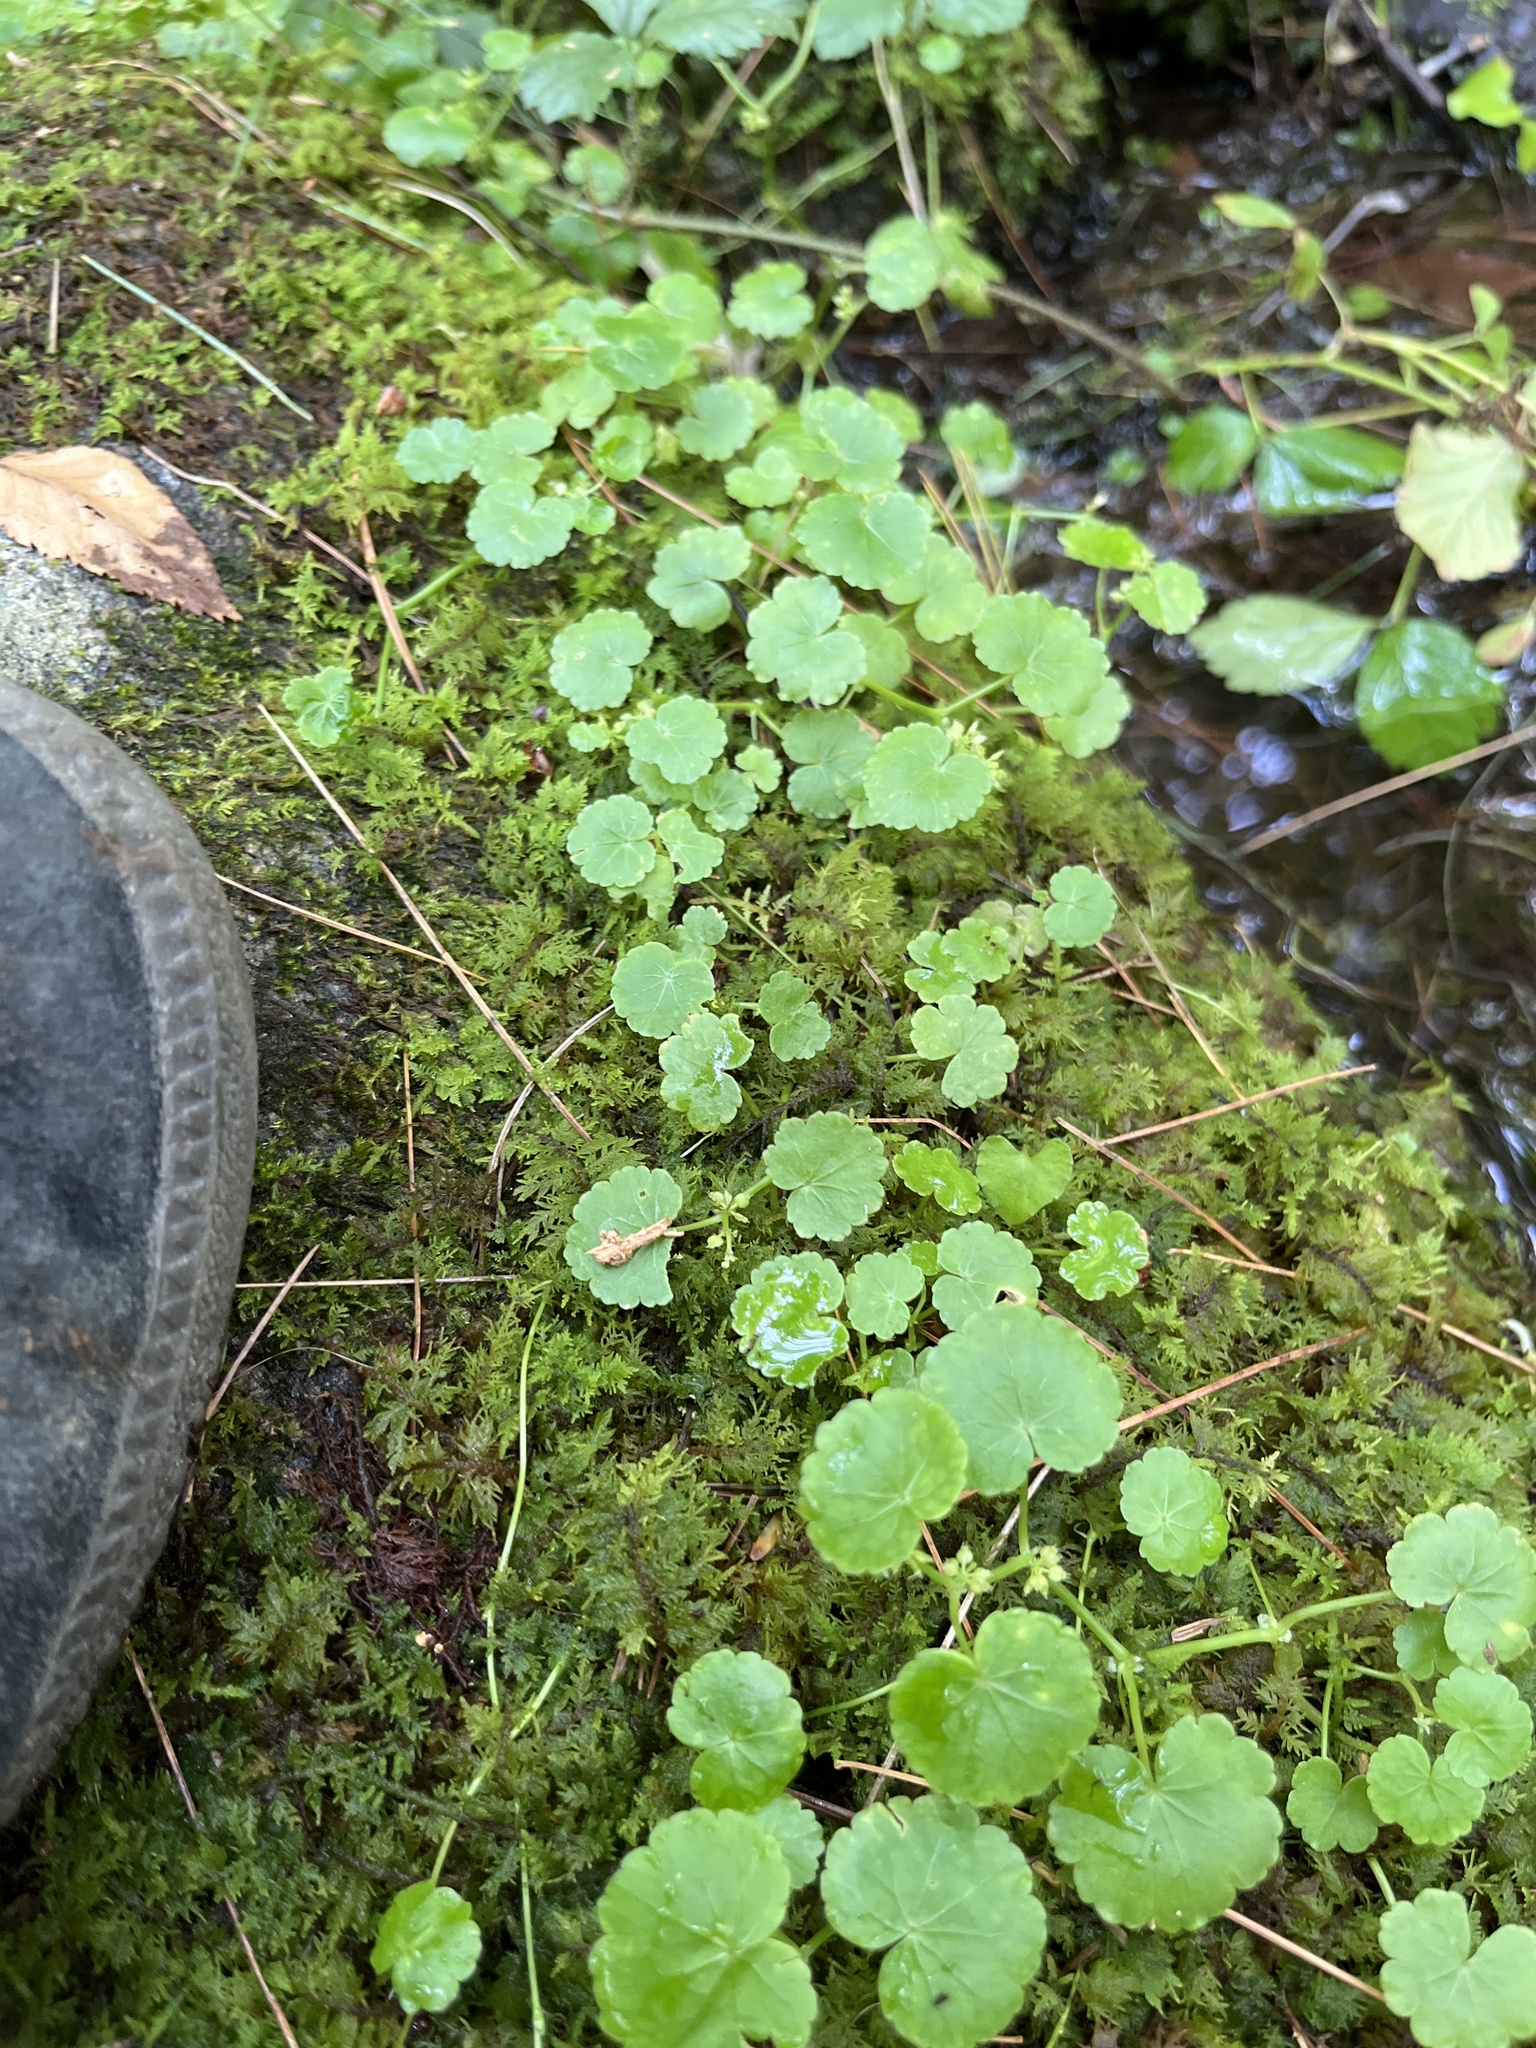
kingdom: Plantae
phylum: Tracheophyta
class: Magnoliopsida
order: Apiales
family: Araliaceae
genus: Hydrocotyle
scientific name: Hydrocotyle americana
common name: American water-pennywort
